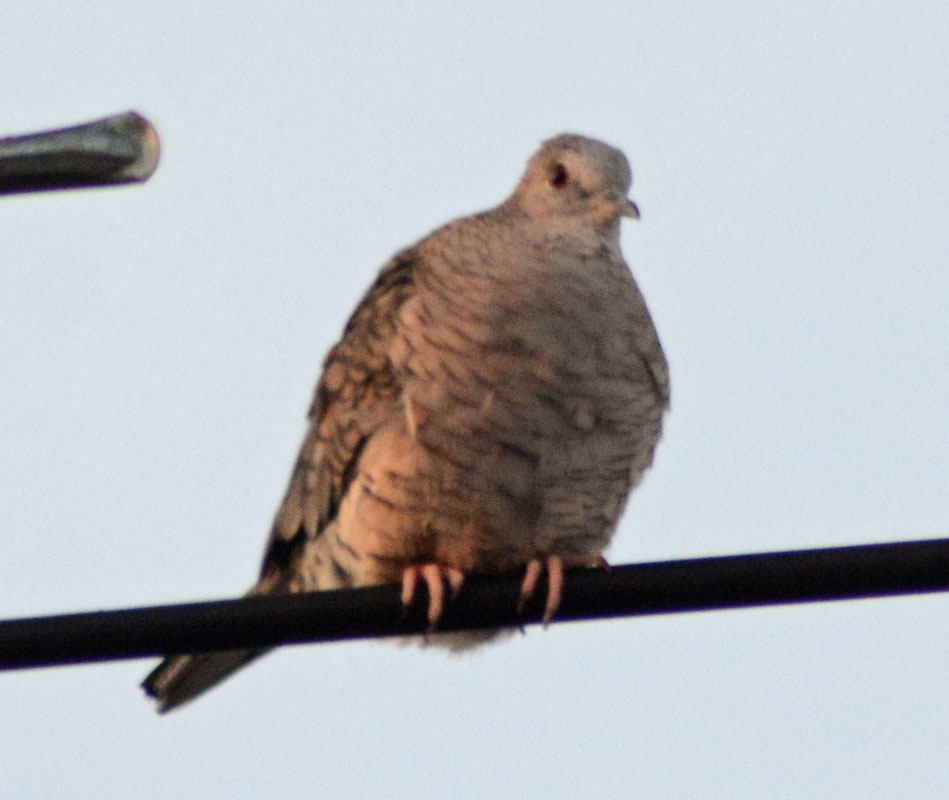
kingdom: Animalia
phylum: Chordata
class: Aves
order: Columbiformes
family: Columbidae
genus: Columbina
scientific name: Columbina inca
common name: Inca dove
